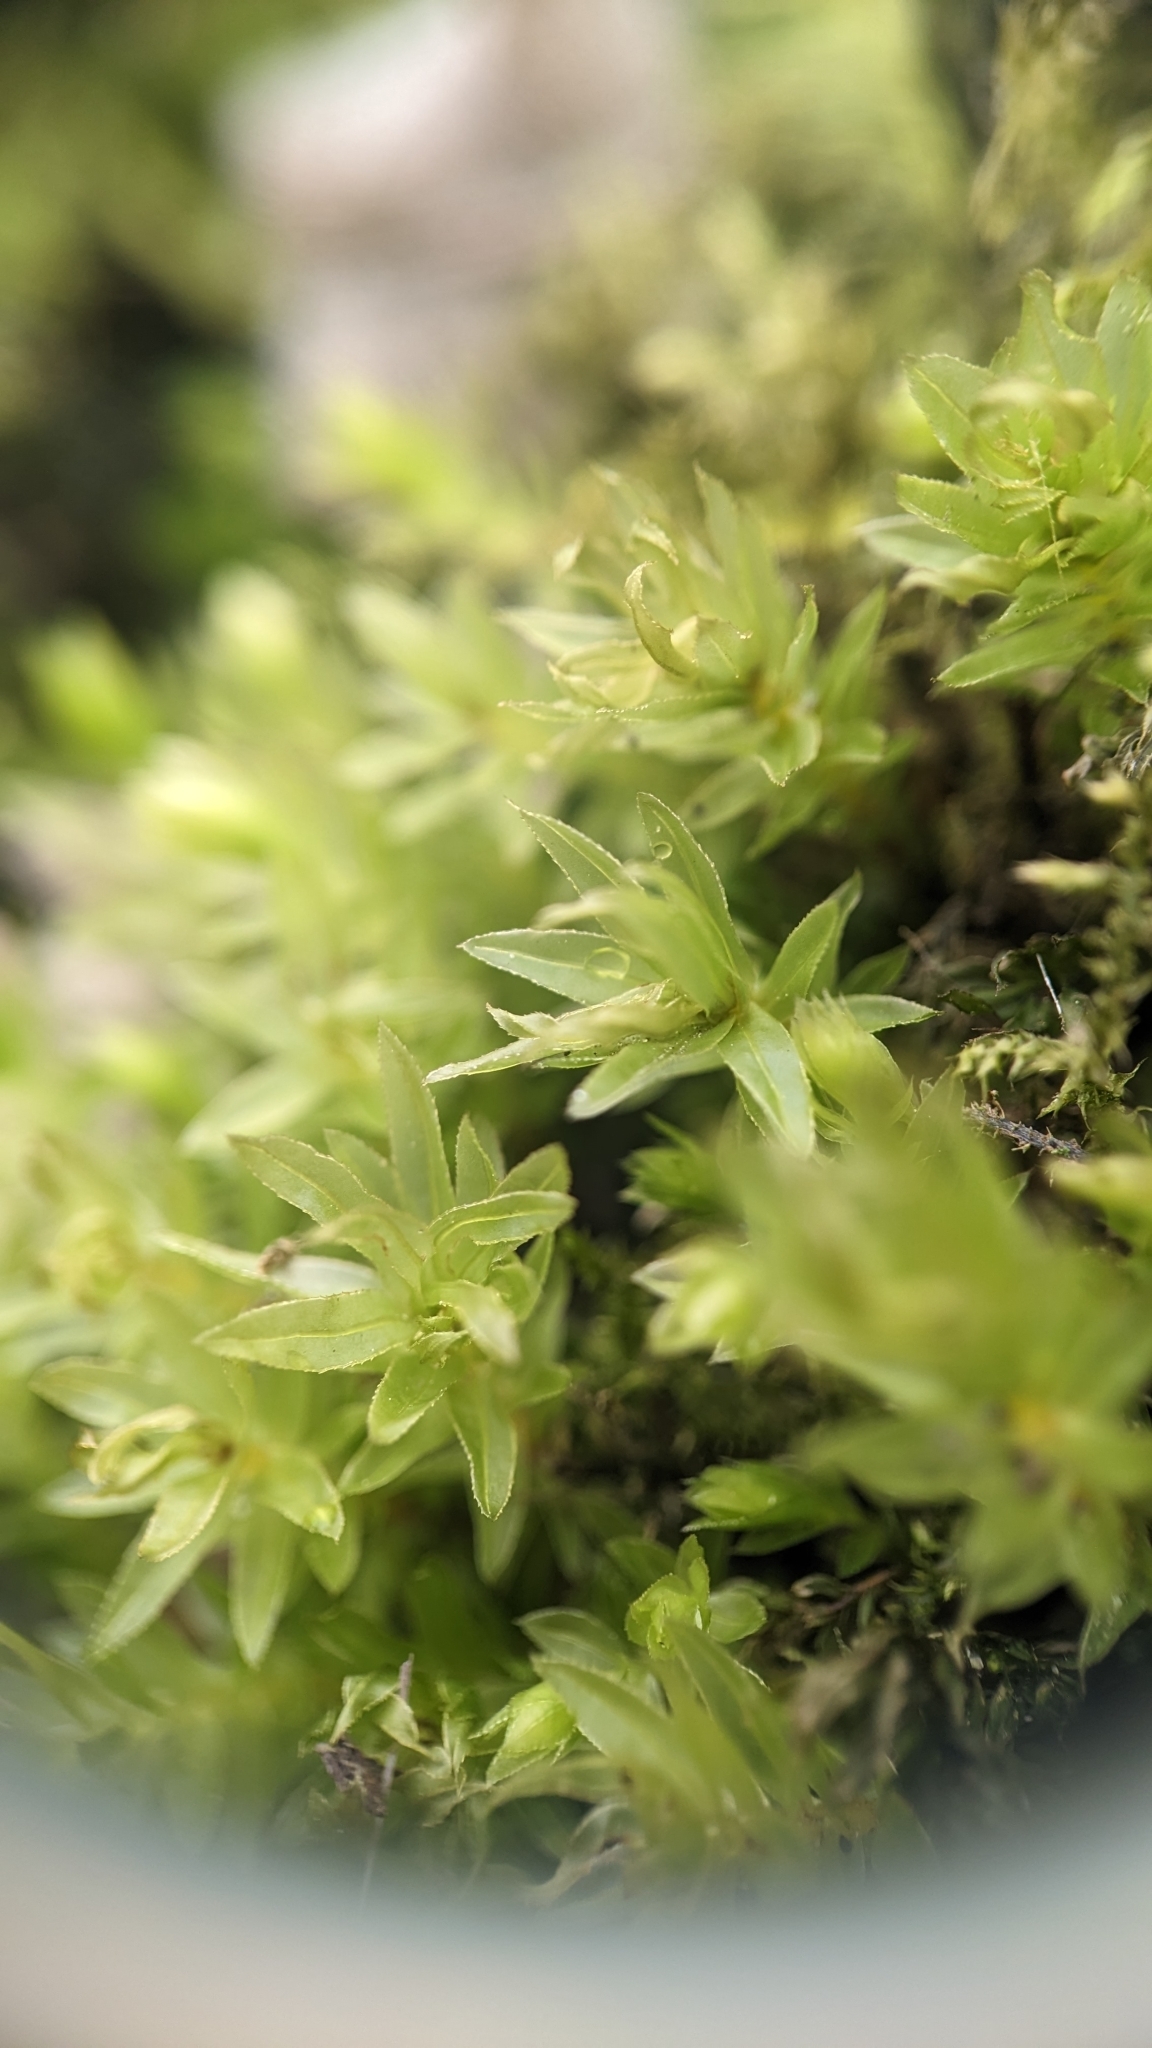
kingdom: Plantae
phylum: Bryophyta
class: Bryopsida
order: Bryales
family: Mniaceae
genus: Mnium
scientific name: Mnium hornum
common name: Swan's-neck leafy moss
